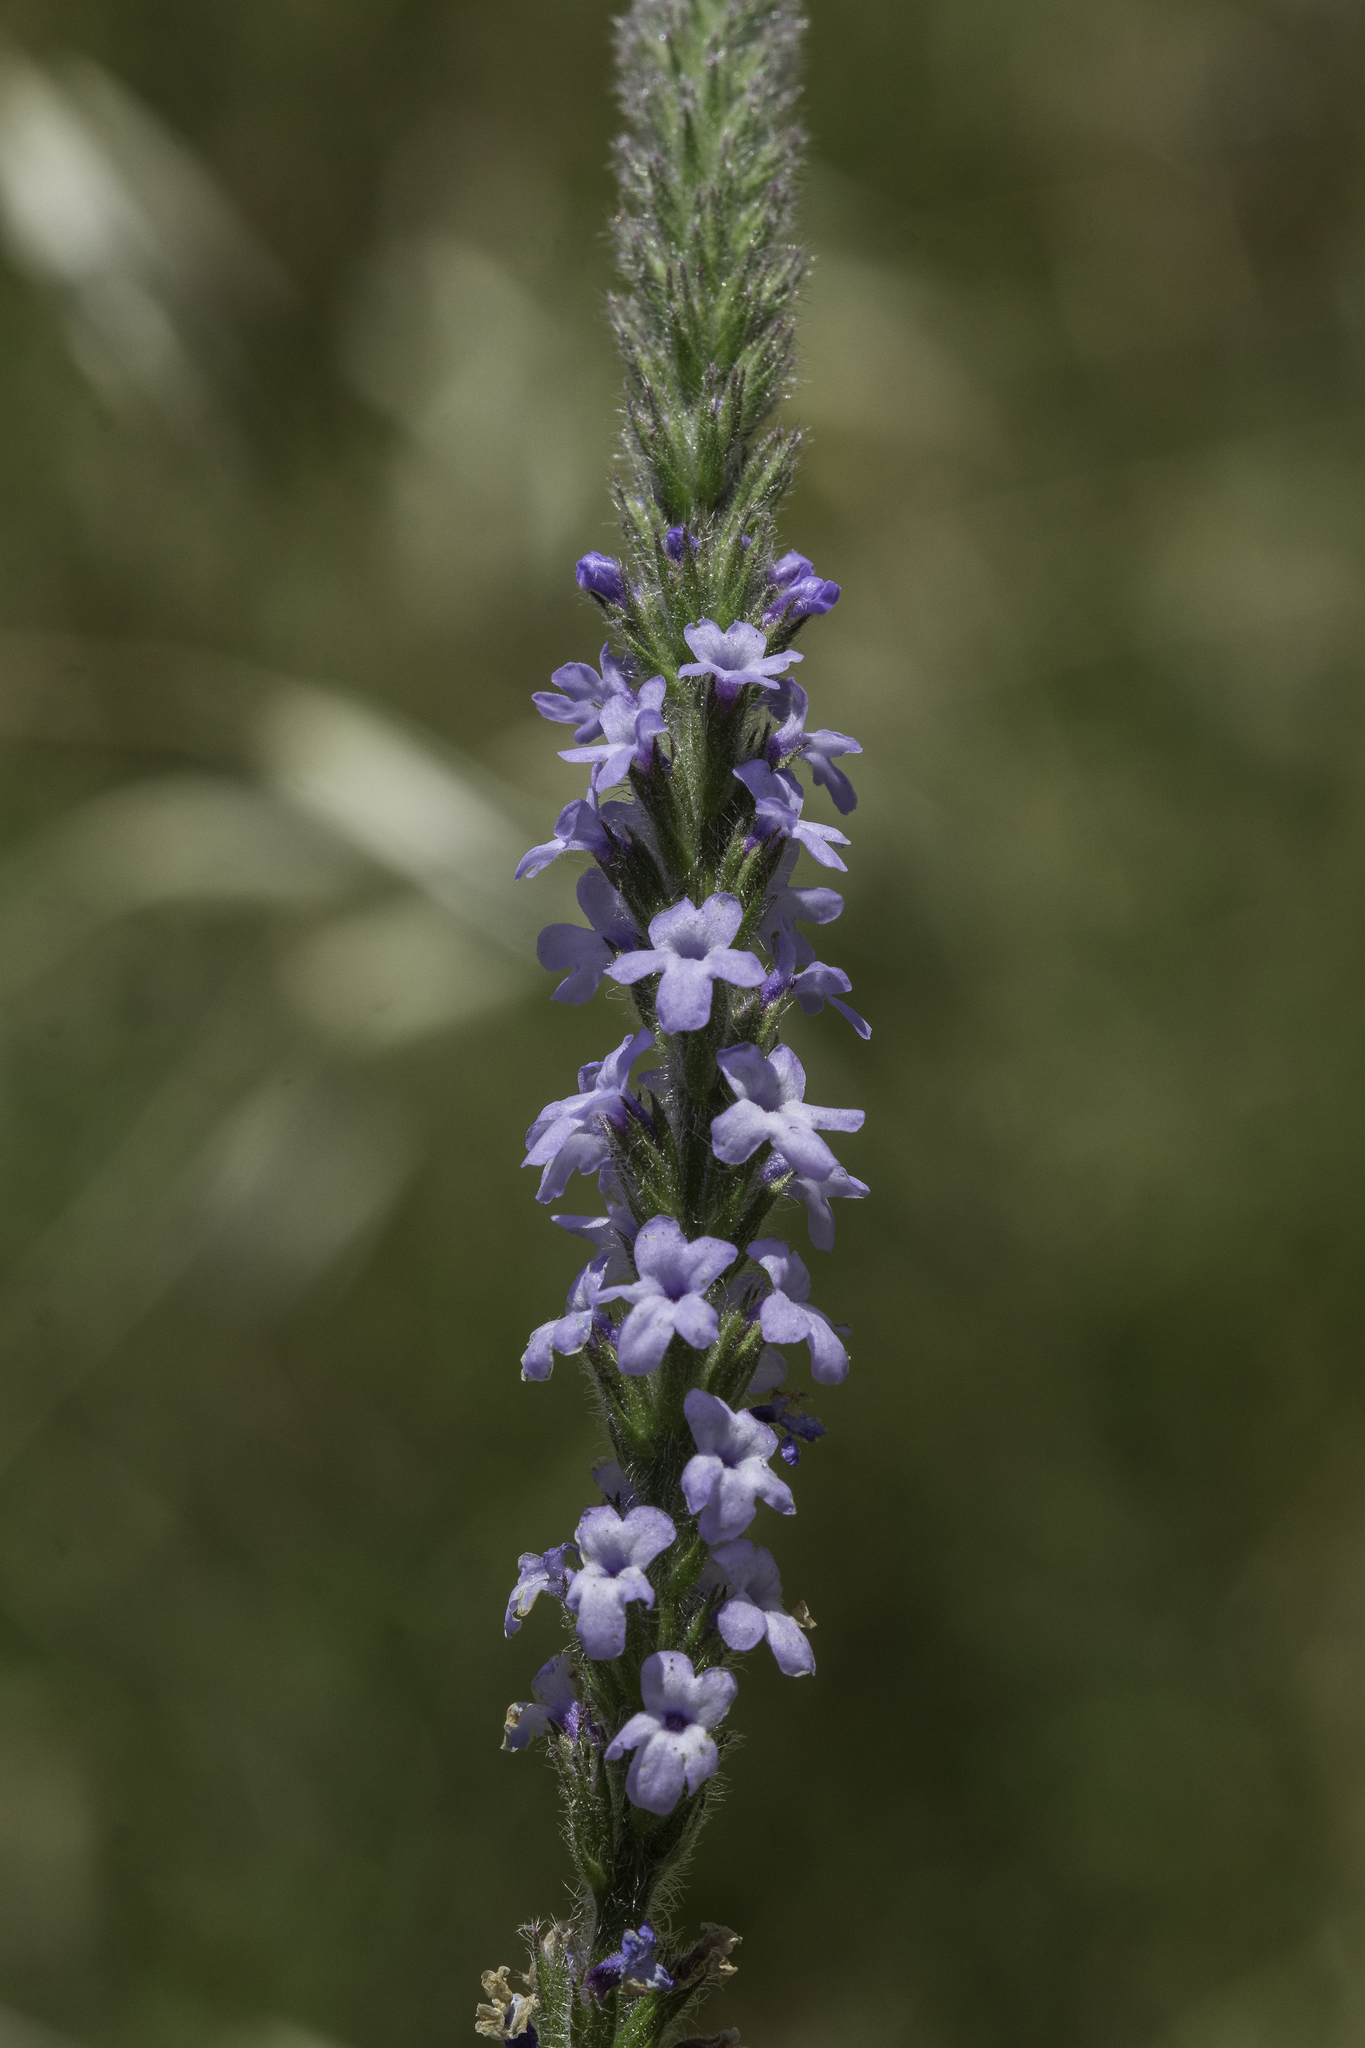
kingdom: Plantae
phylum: Tracheophyta
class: Magnoliopsida
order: Lamiales
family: Verbenaceae
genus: Verbena
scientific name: Verbena lasiostachys
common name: Vervain
